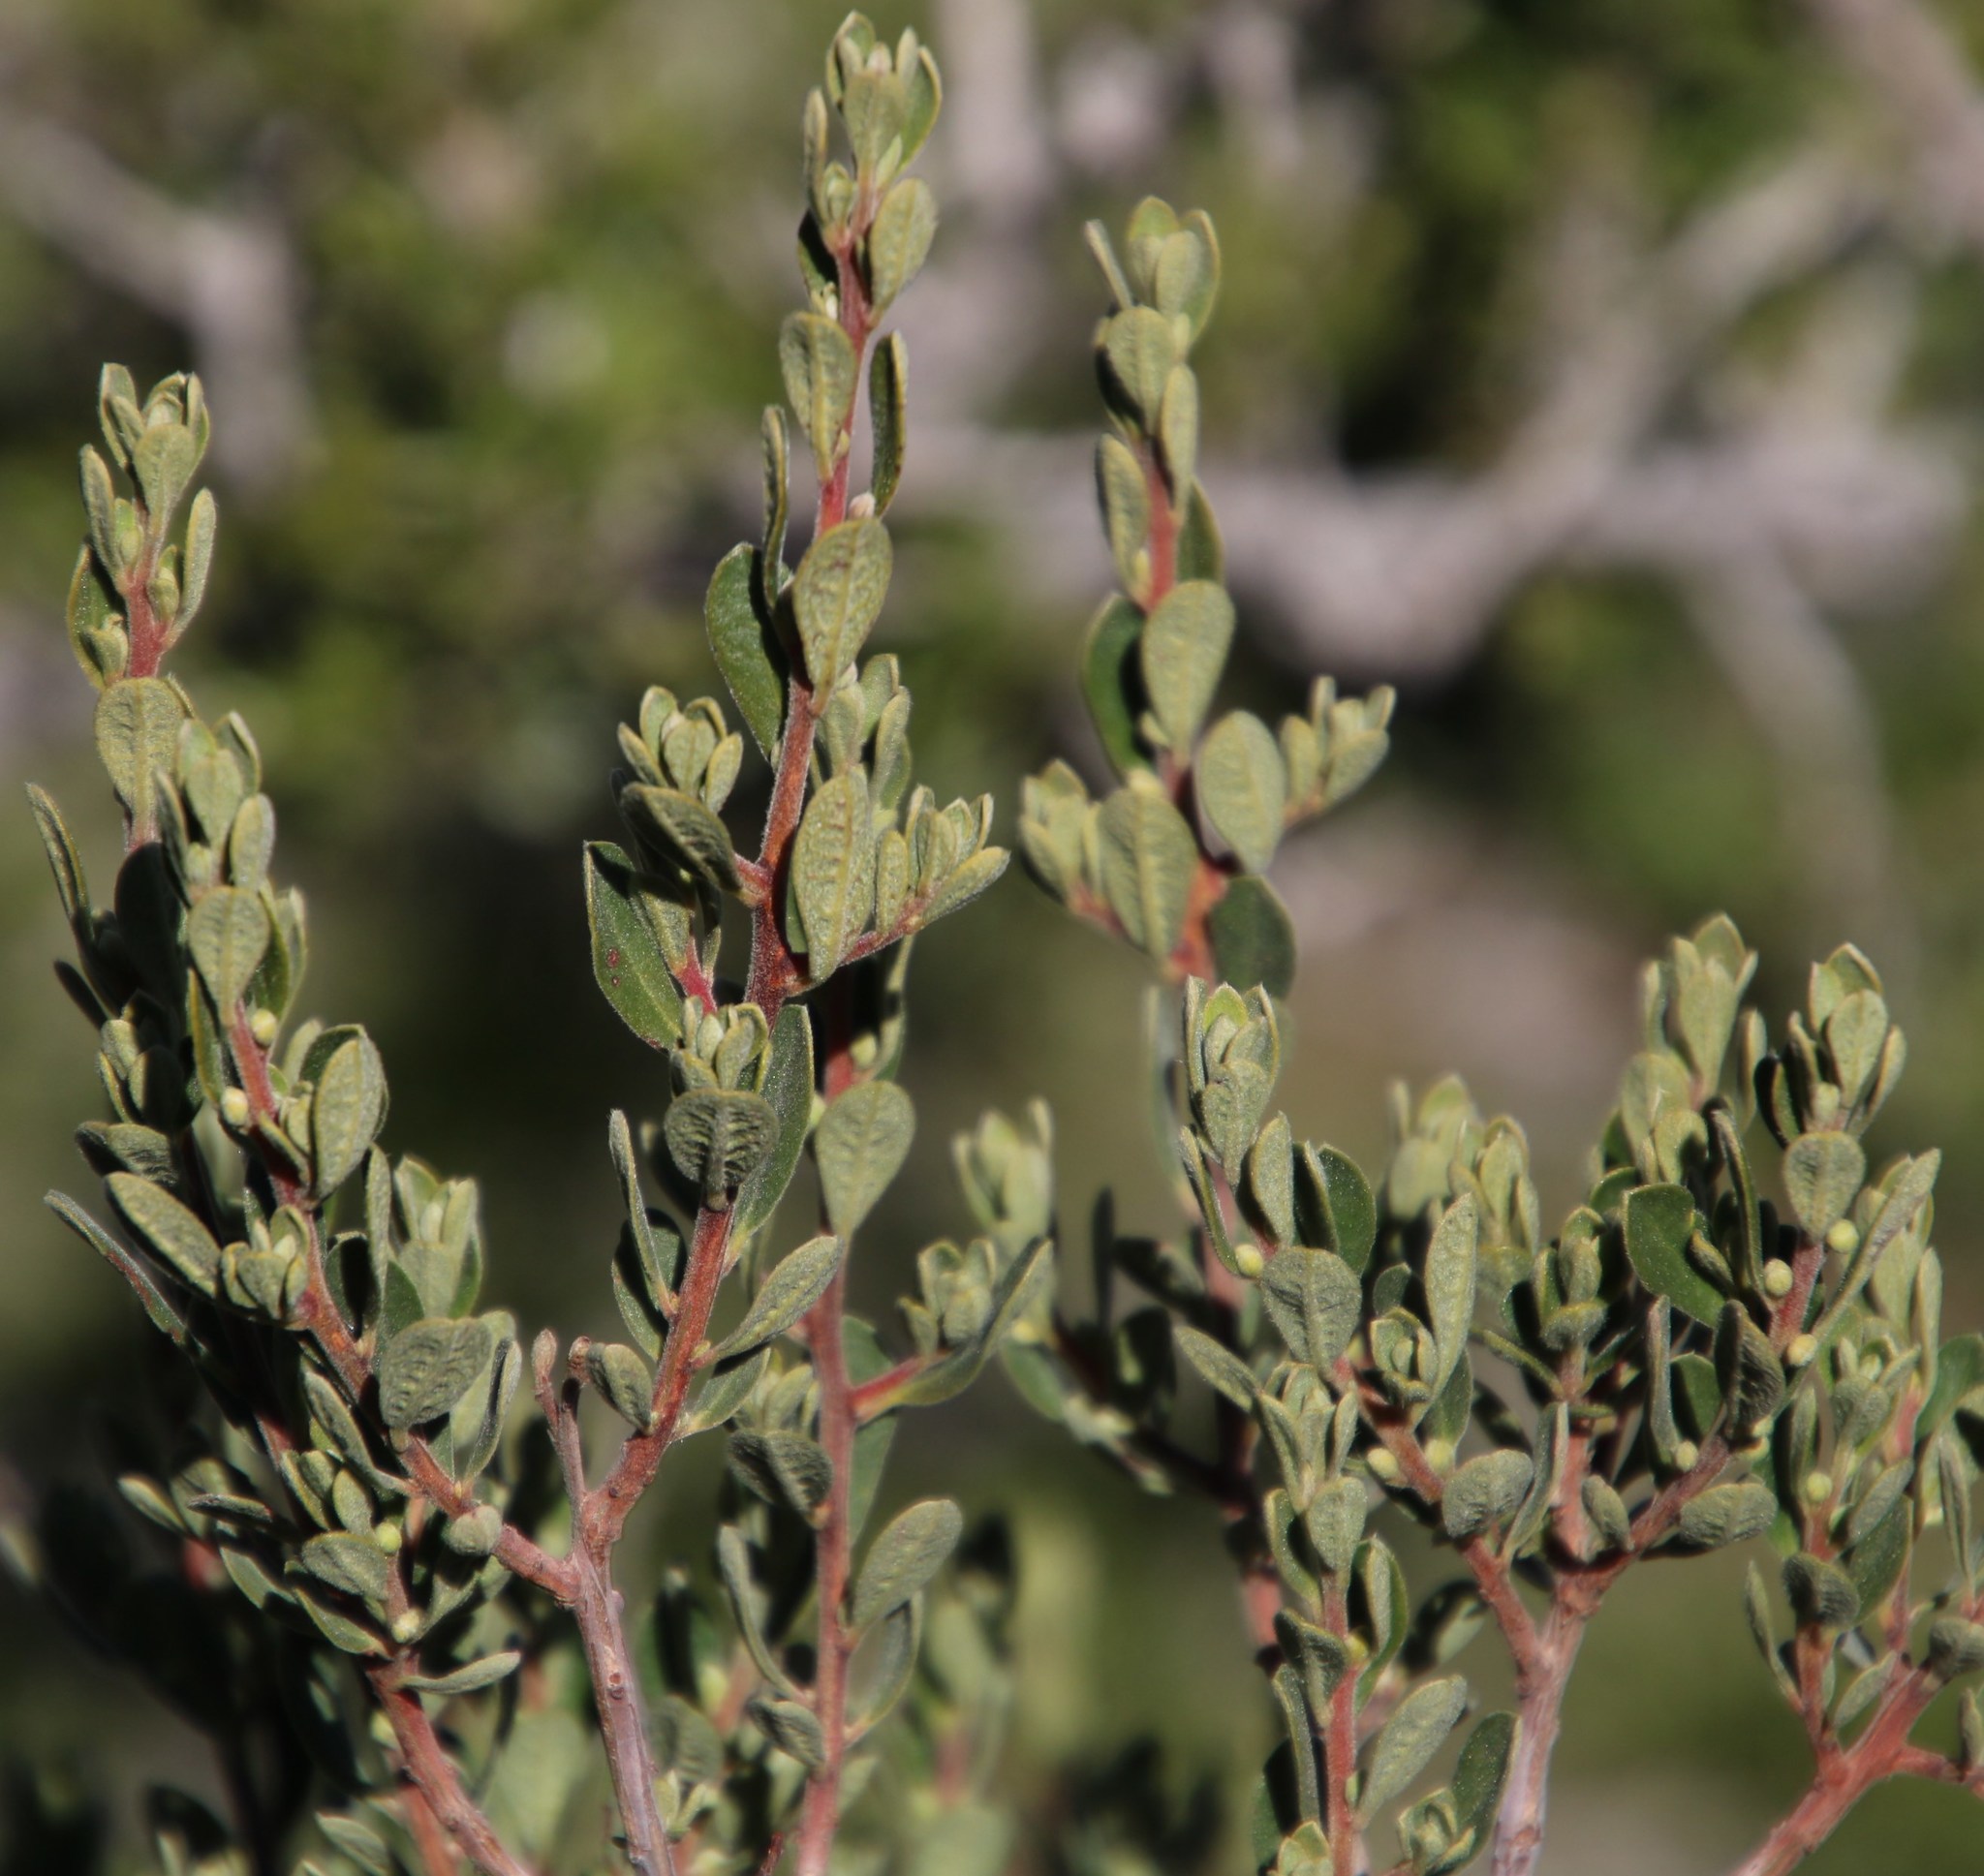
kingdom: Plantae
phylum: Tracheophyta
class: Magnoliopsida
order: Ericales
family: Ebenaceae
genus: Diospyros
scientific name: Diospyros pubescens
